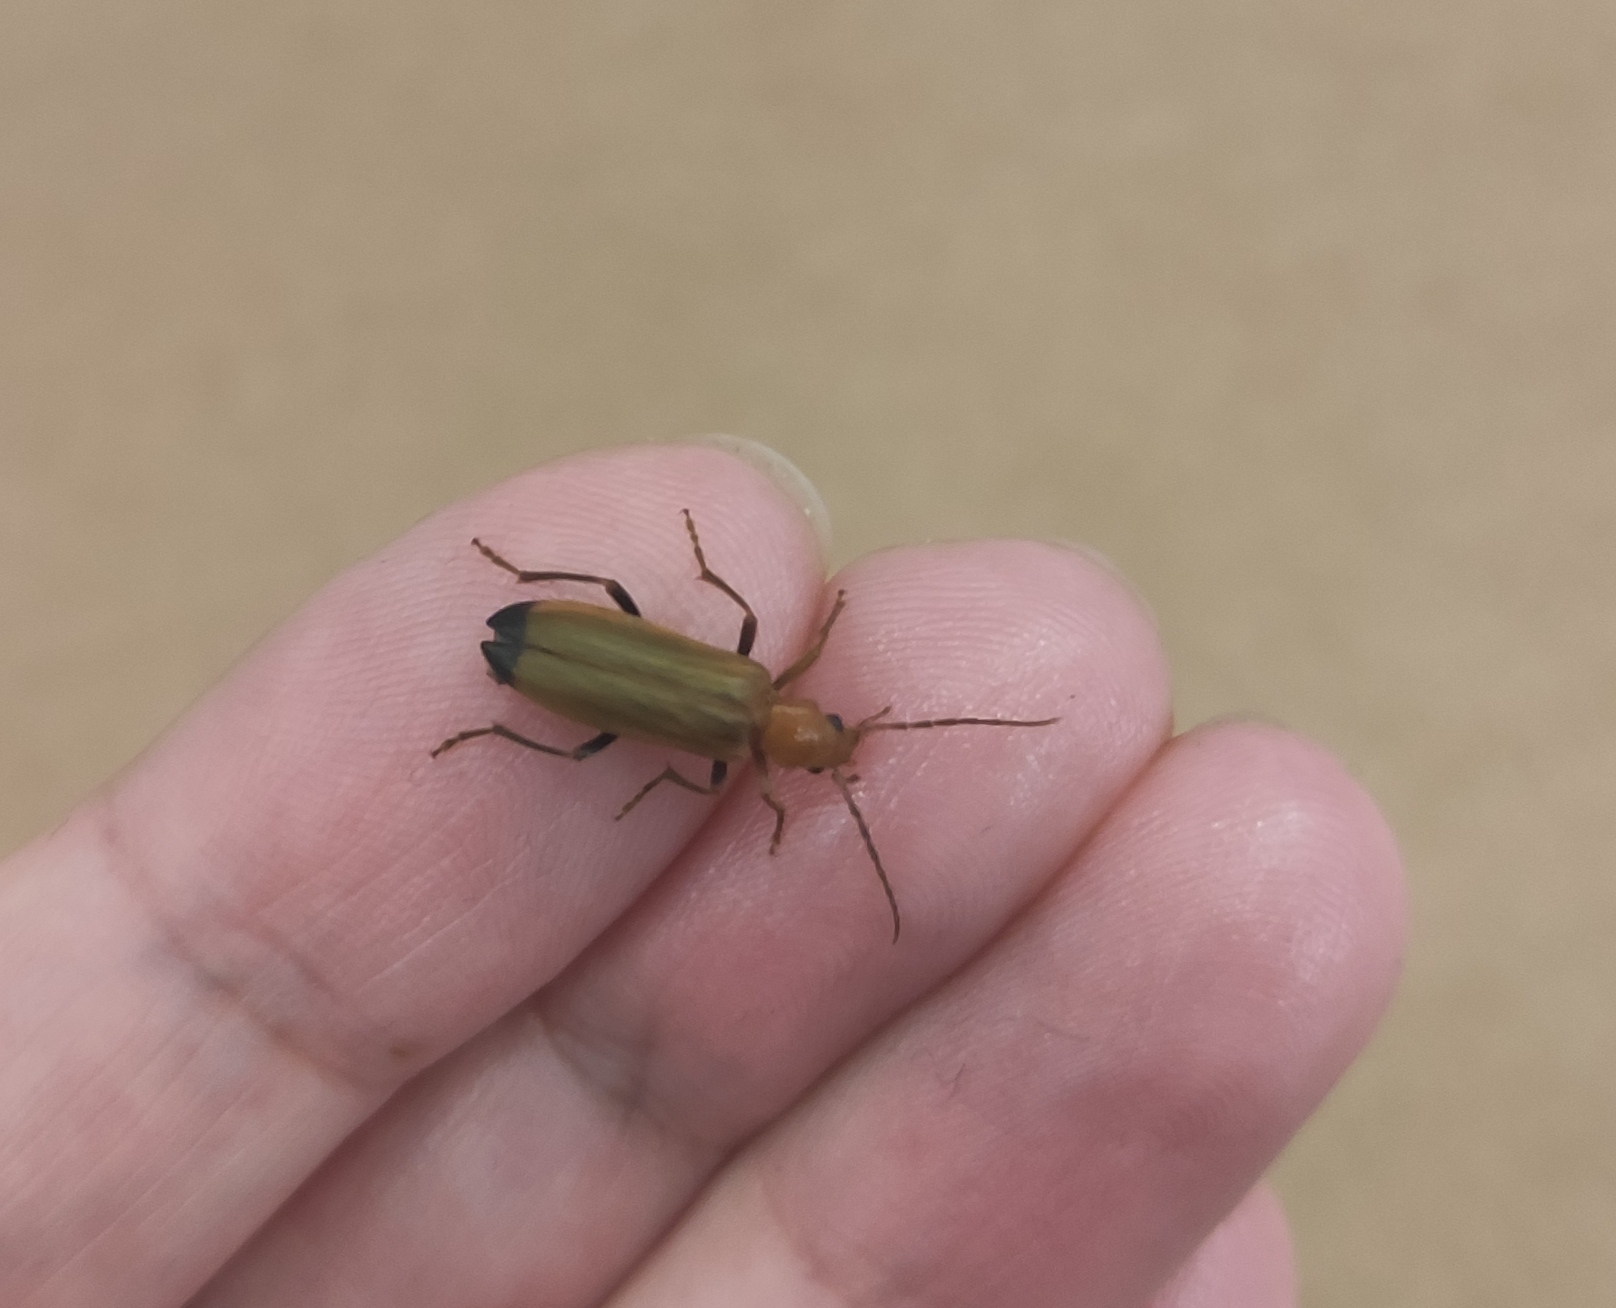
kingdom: Animalia
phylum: Arthropoda
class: Insecta
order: Coleoptera
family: Oedemeridae
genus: Nacerdes
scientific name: Nacerdes melanura
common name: Wharf borer
